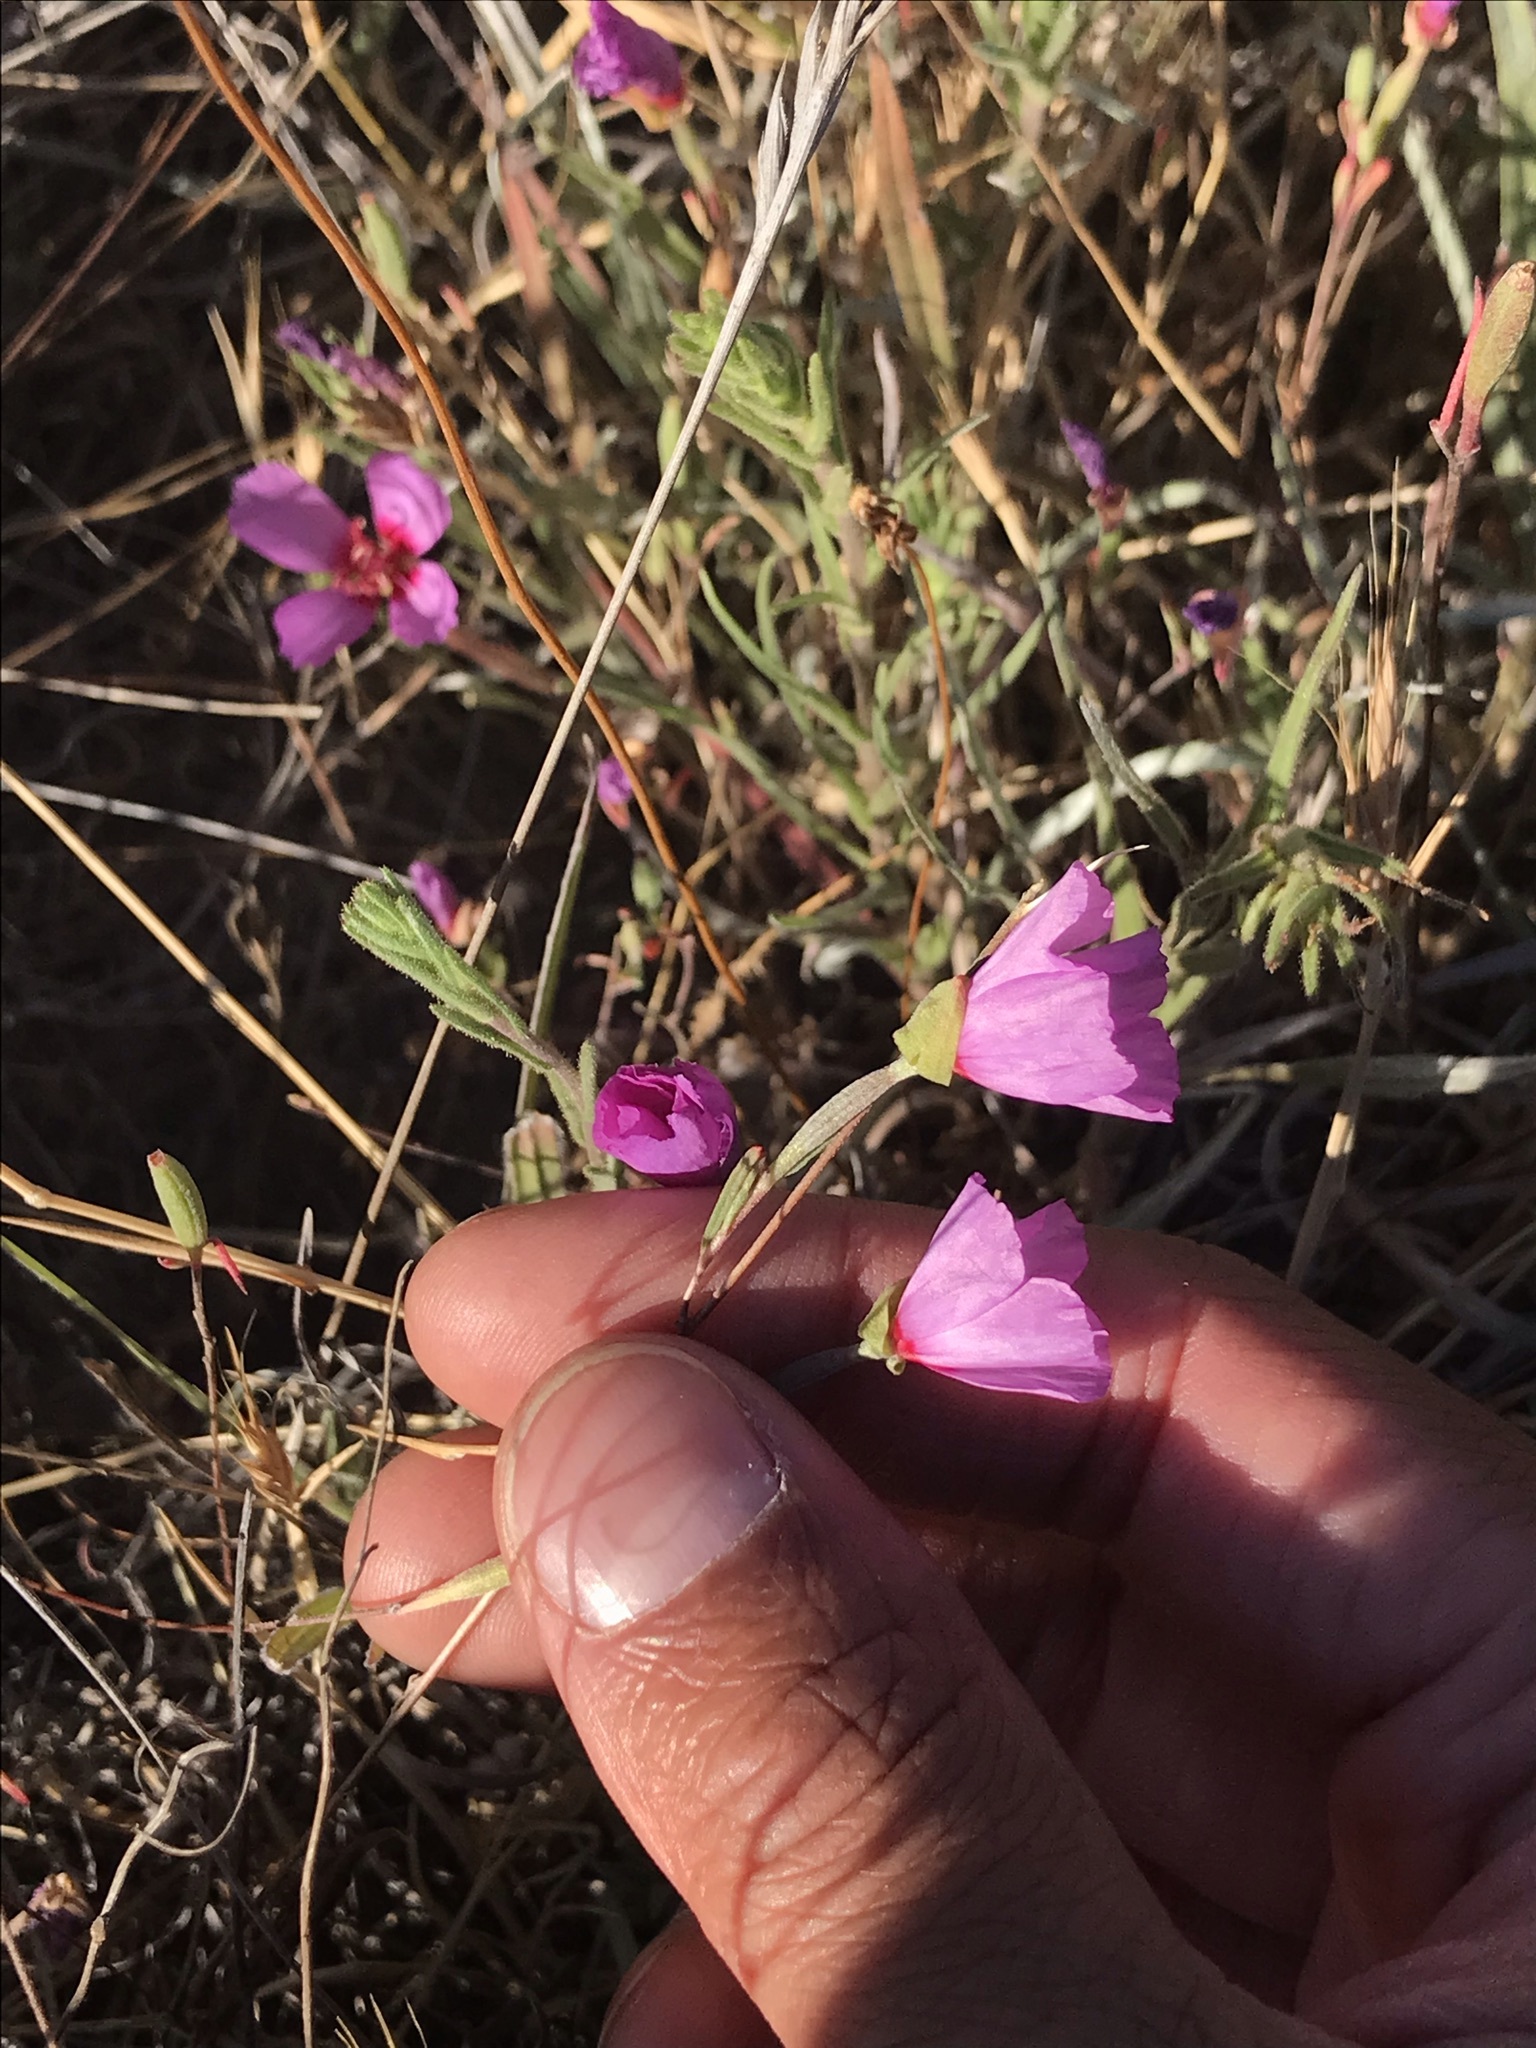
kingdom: Plantae
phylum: Tracheophyta
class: Magnoliopsida
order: Myrtales
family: Onagraceae
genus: Clarkia
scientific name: Clarkia purpurea
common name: Purple clarkia
